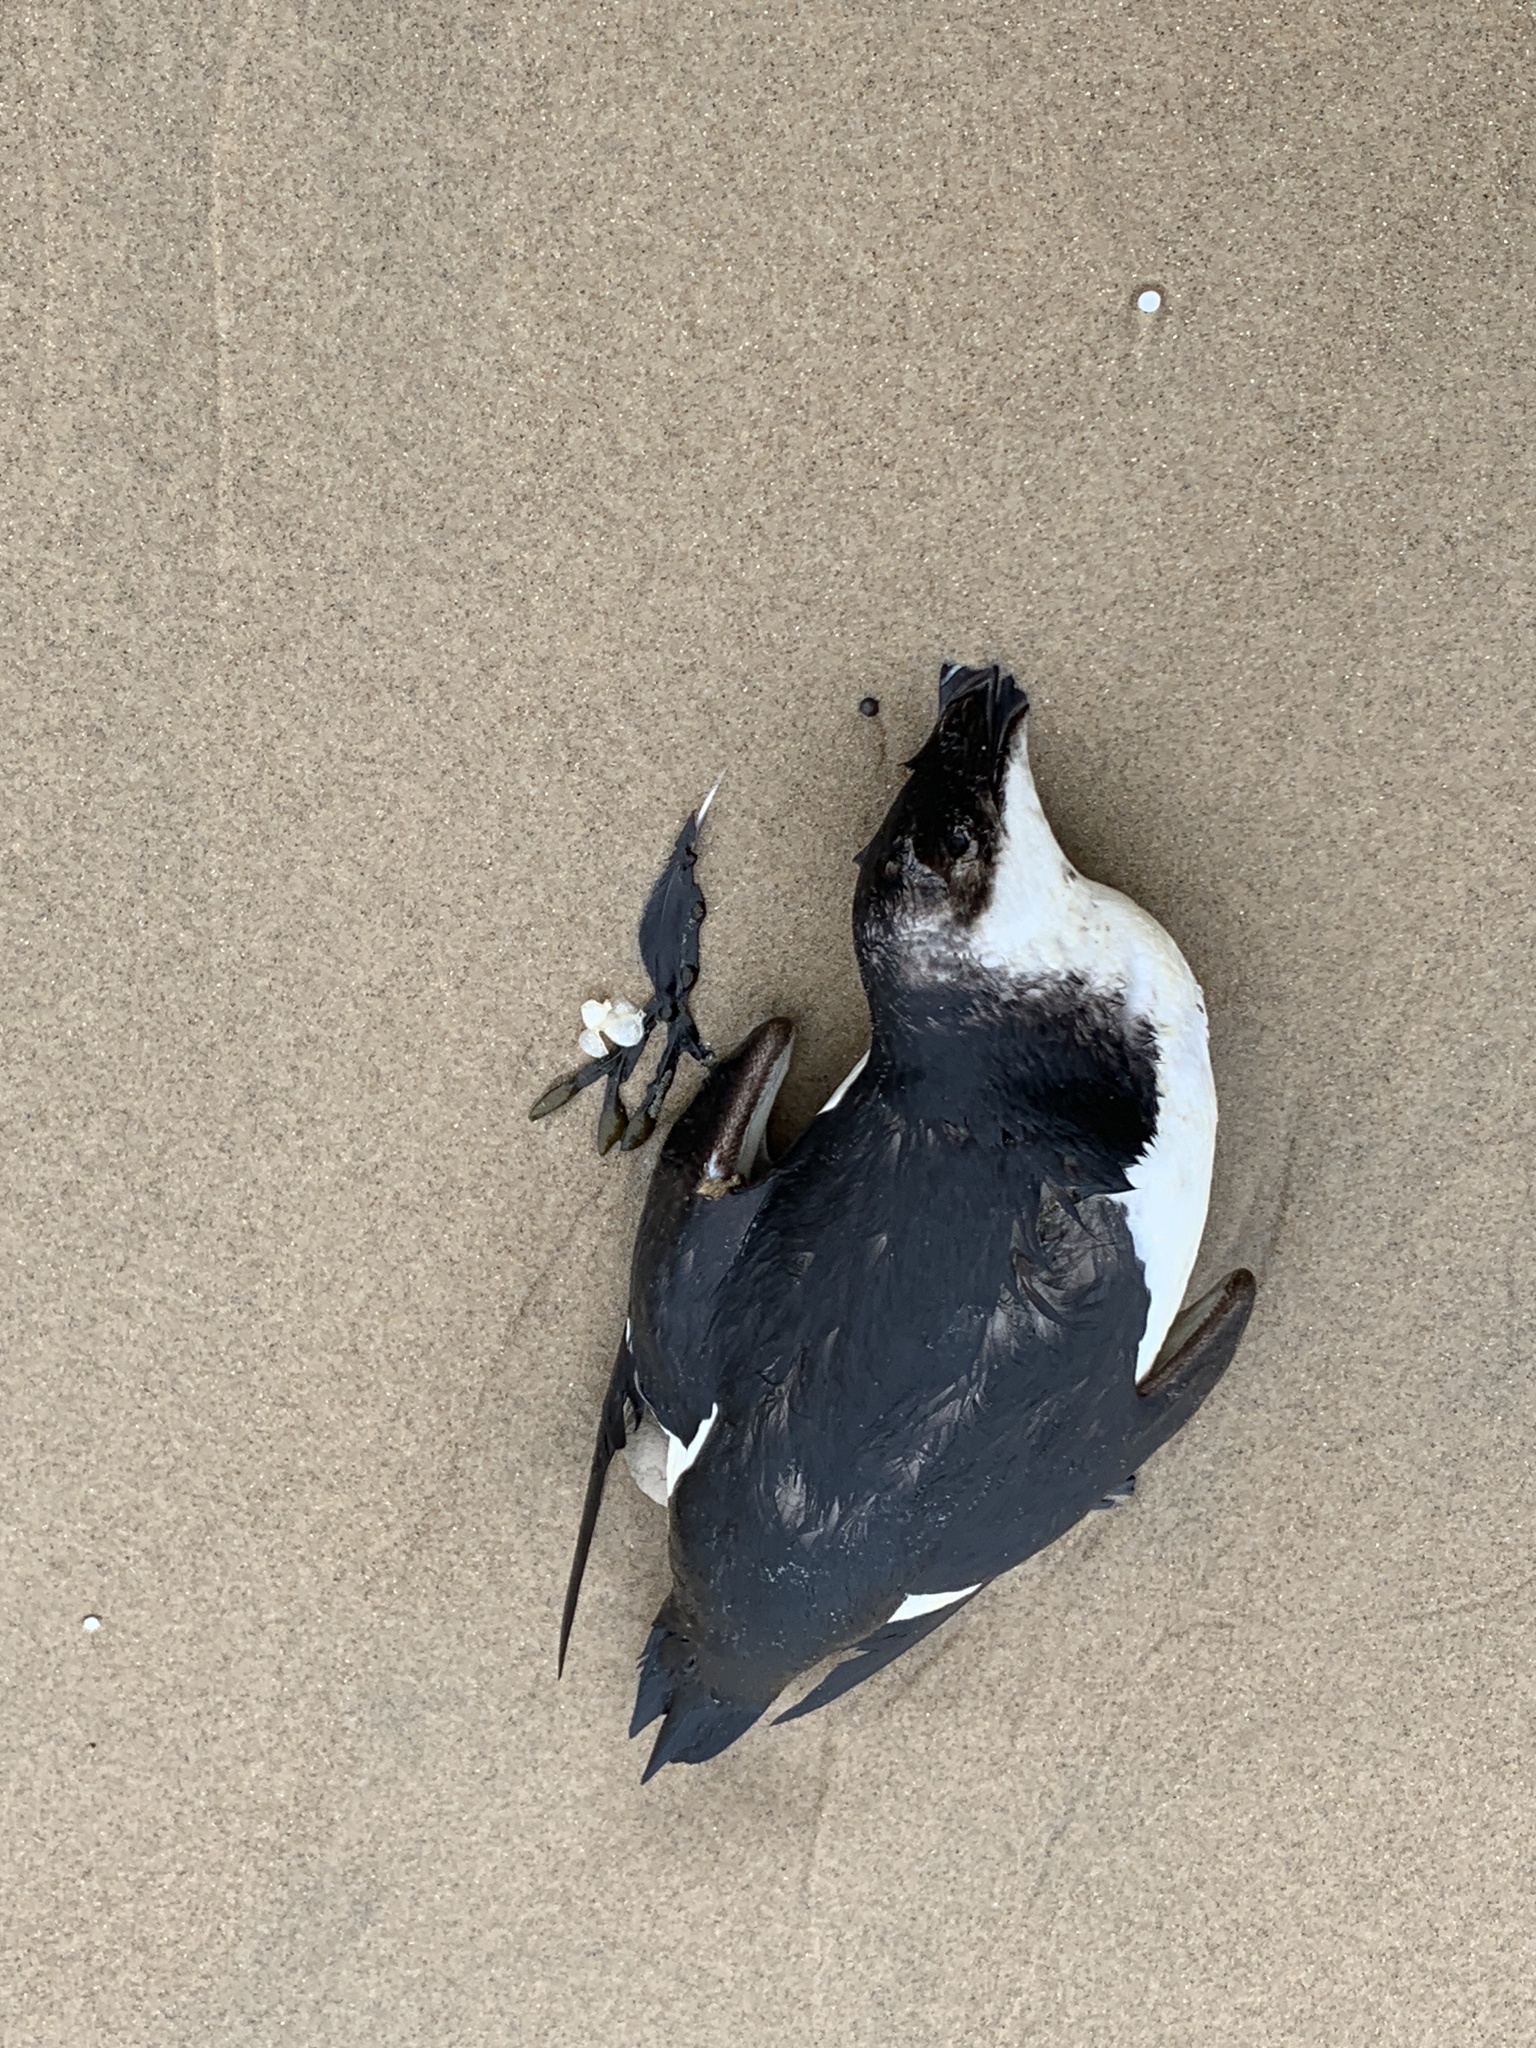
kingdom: Animalia
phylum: Chordata
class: Aves
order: Charadriiformes
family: Alcidae
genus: Alca
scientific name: Alca torda
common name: Razorbill
